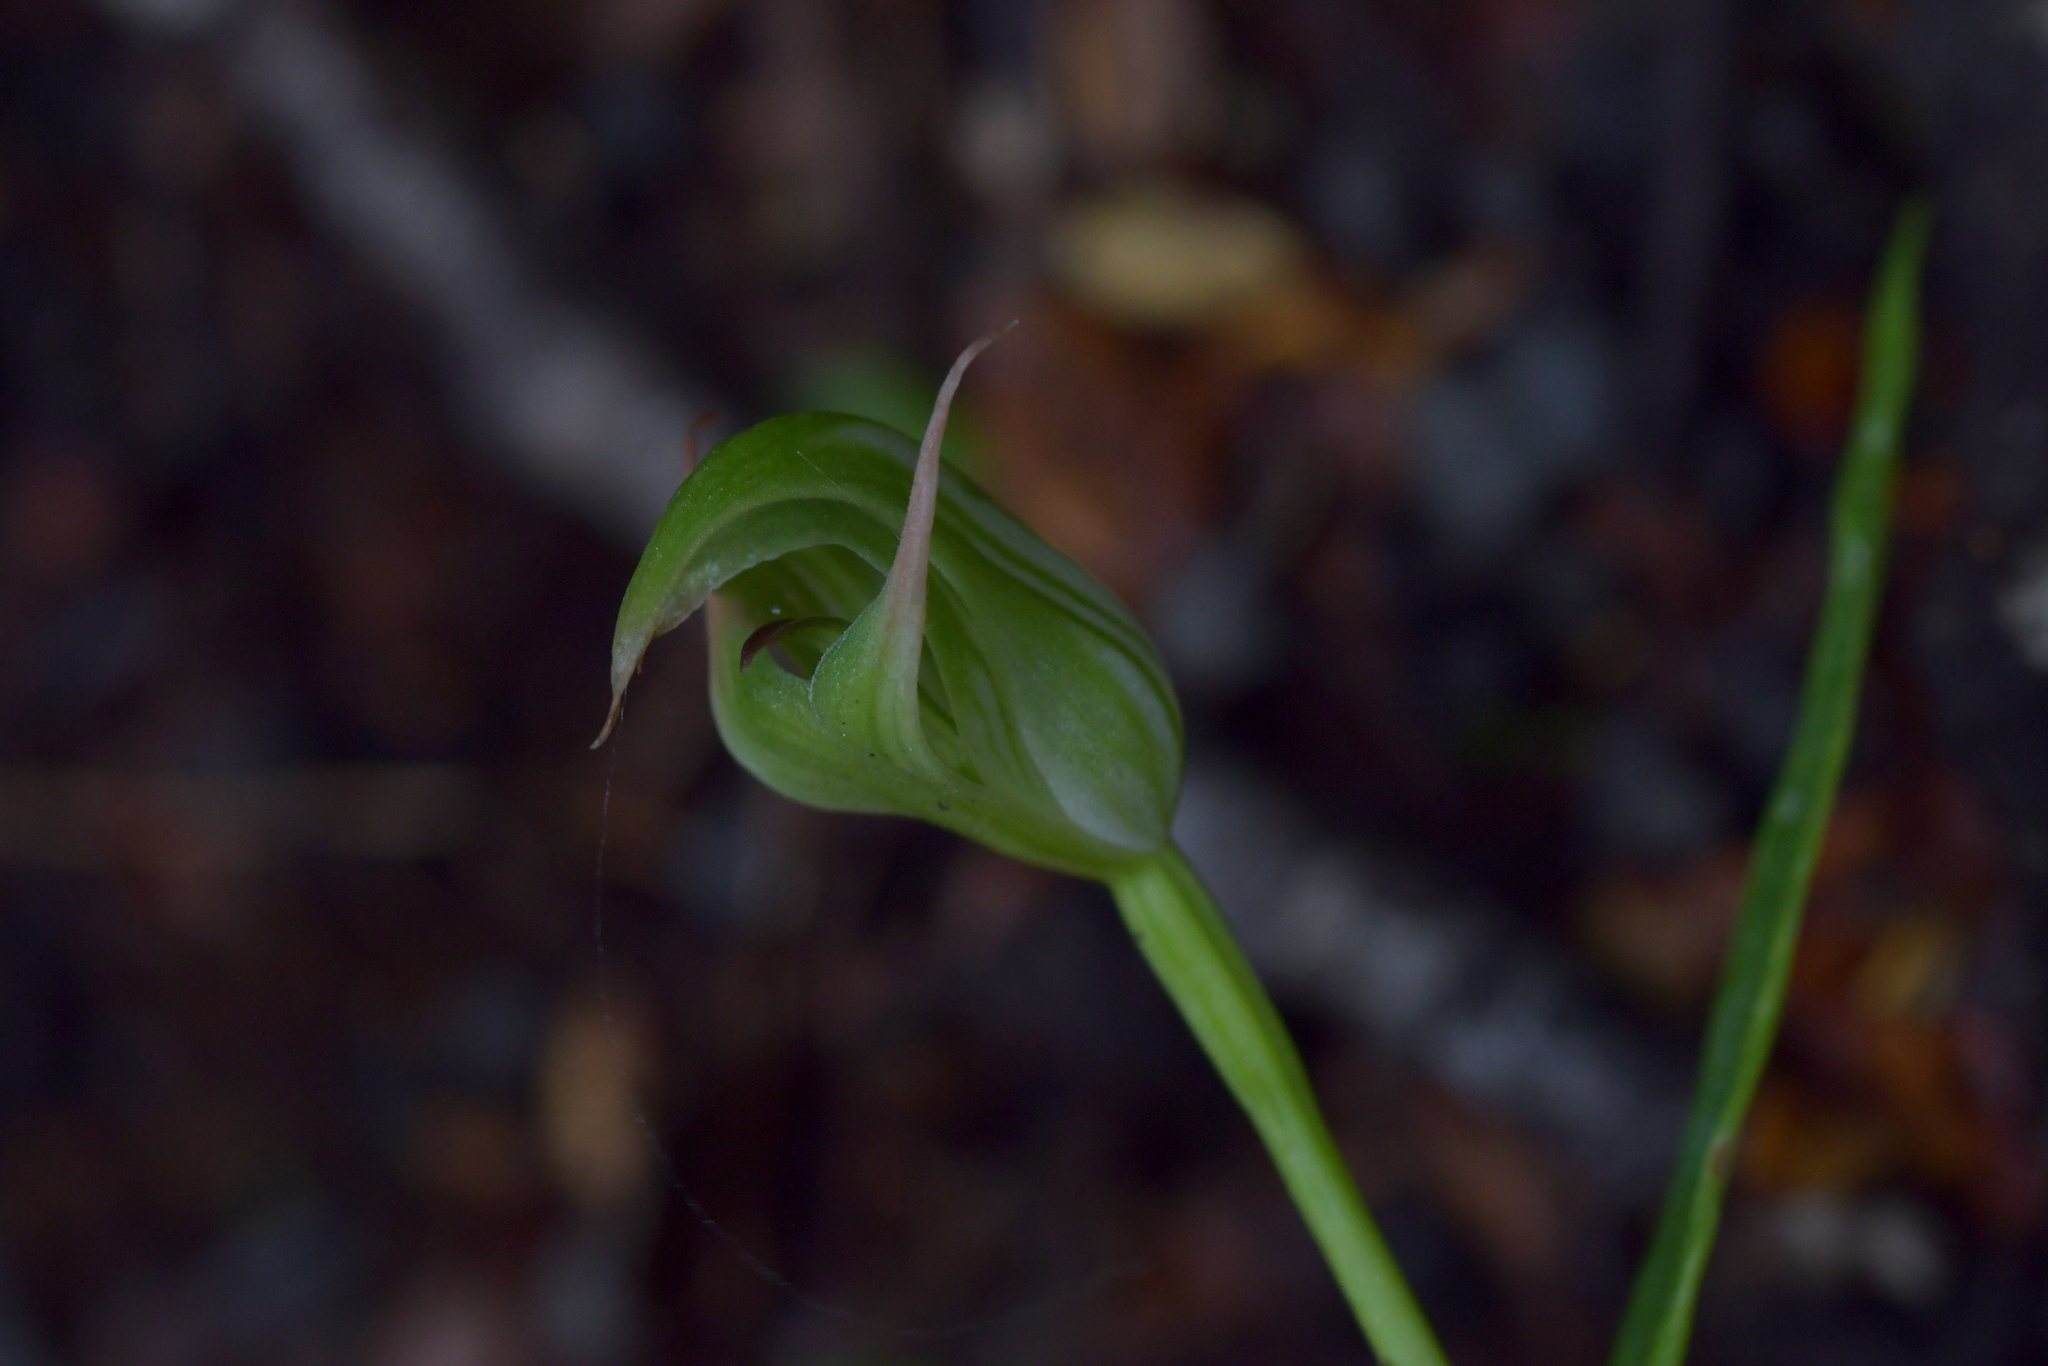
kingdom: Plantae
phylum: Tracheophyta
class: Liliopsida
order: Asparagales
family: Orchidaceae
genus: Pterostylis
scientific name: Pterostylis montana
